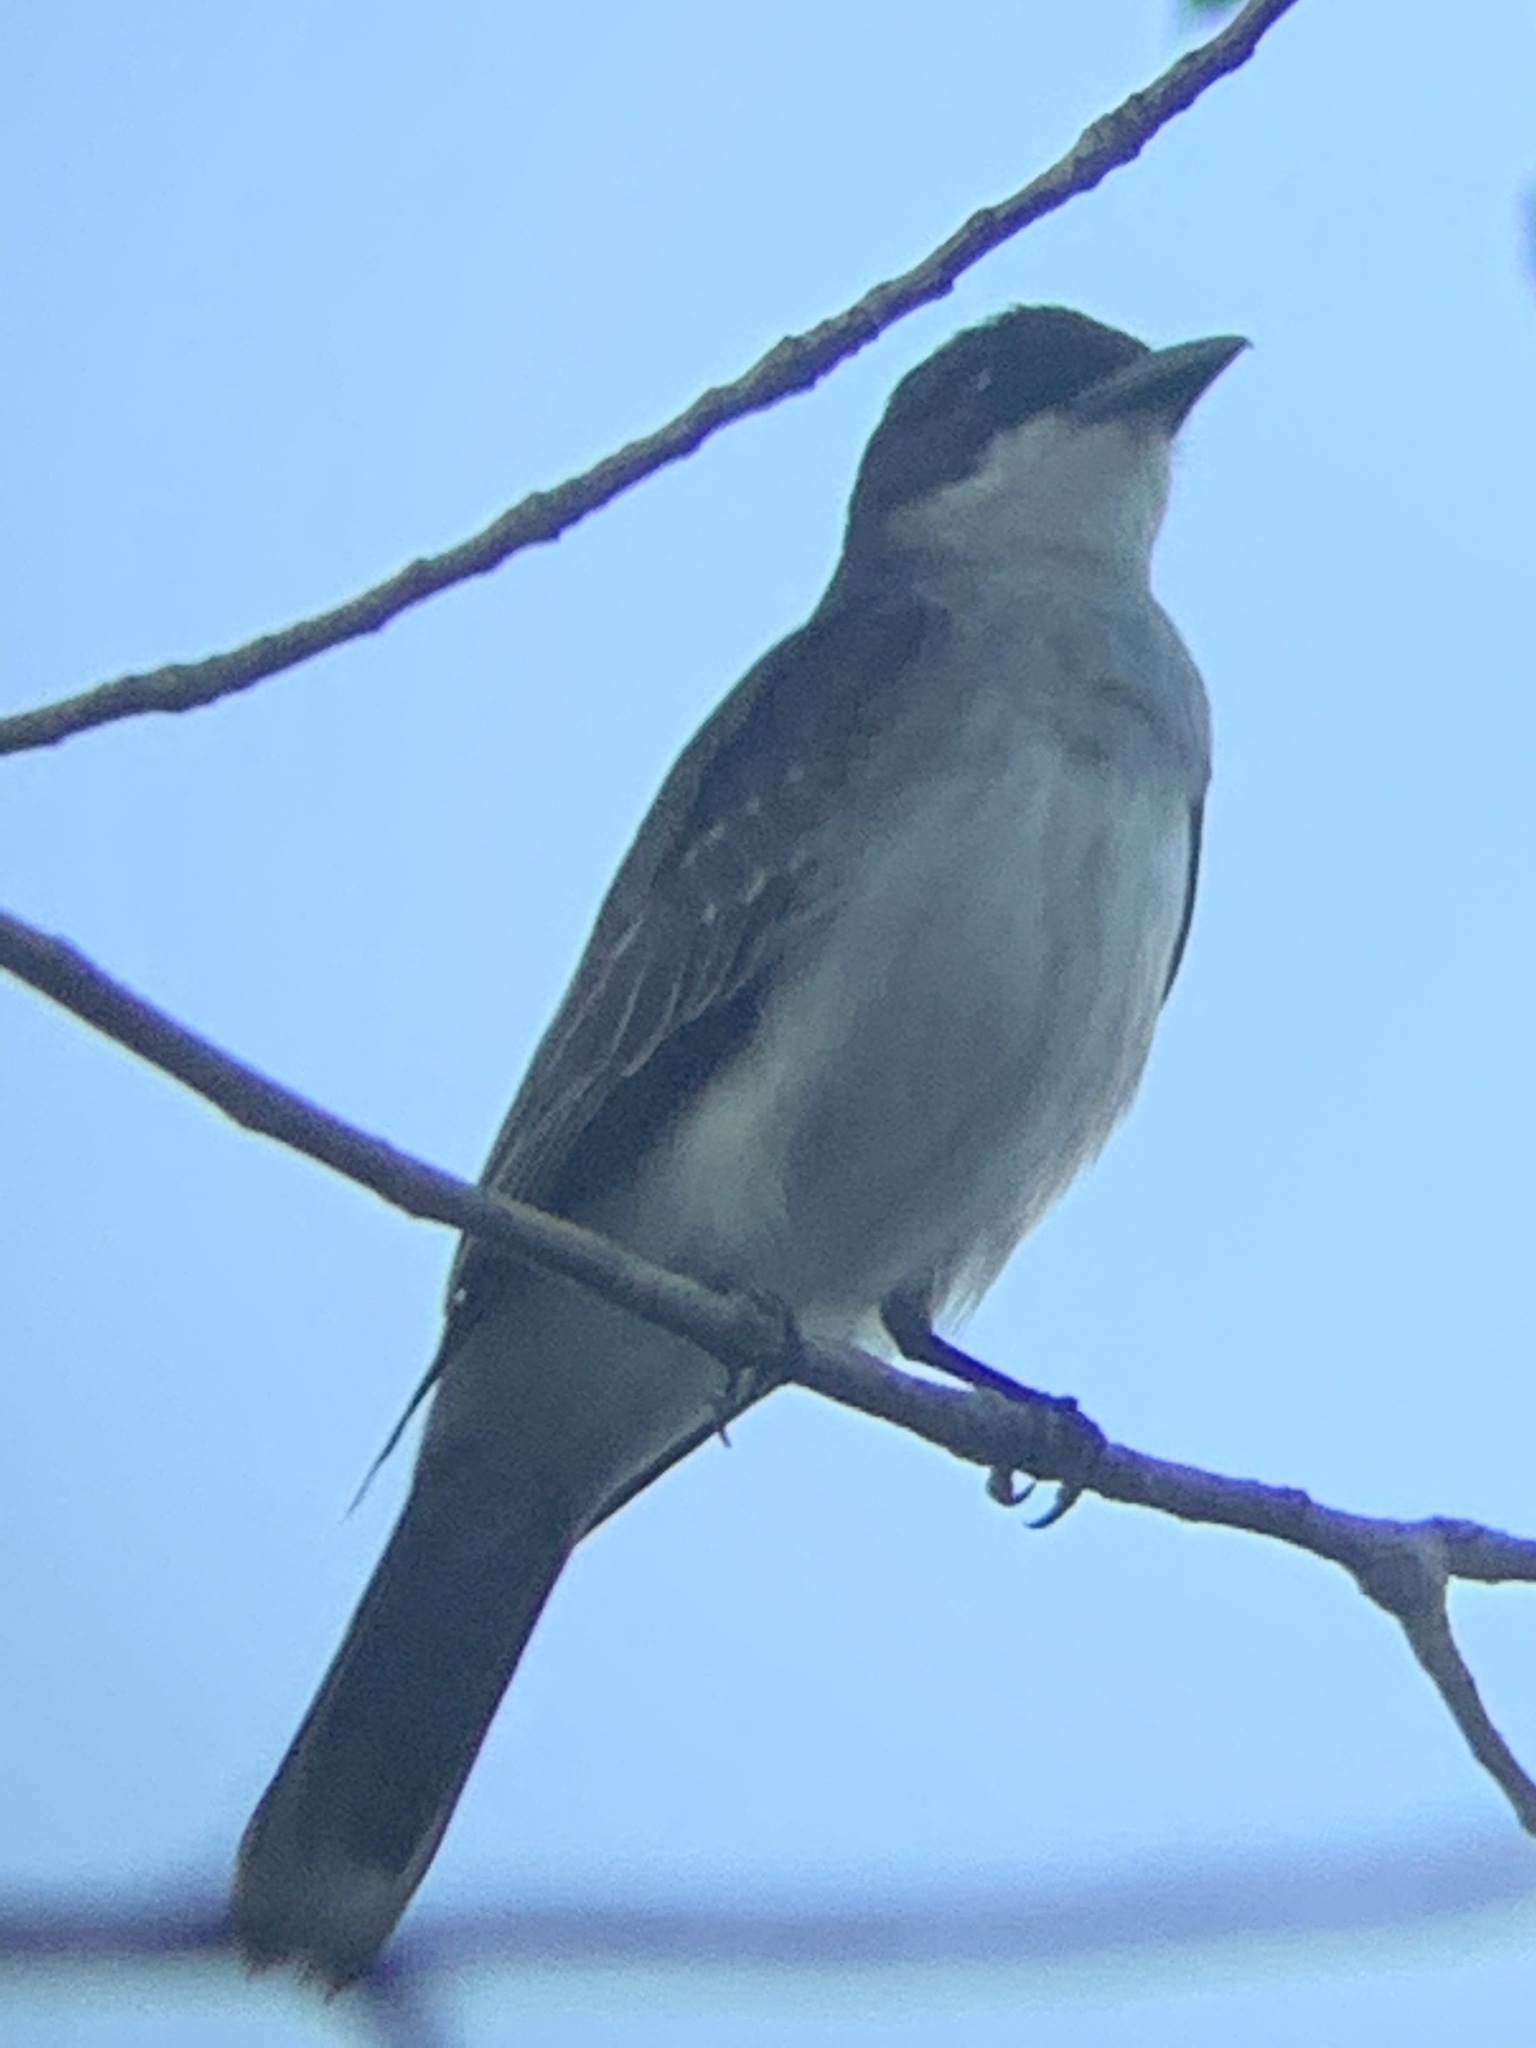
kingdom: Animalia
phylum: Chordata
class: Aves
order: Passeriformes
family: Tyrannidae
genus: Tyrannus
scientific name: Tyrannus tyrannus
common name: Eastern kingbird
